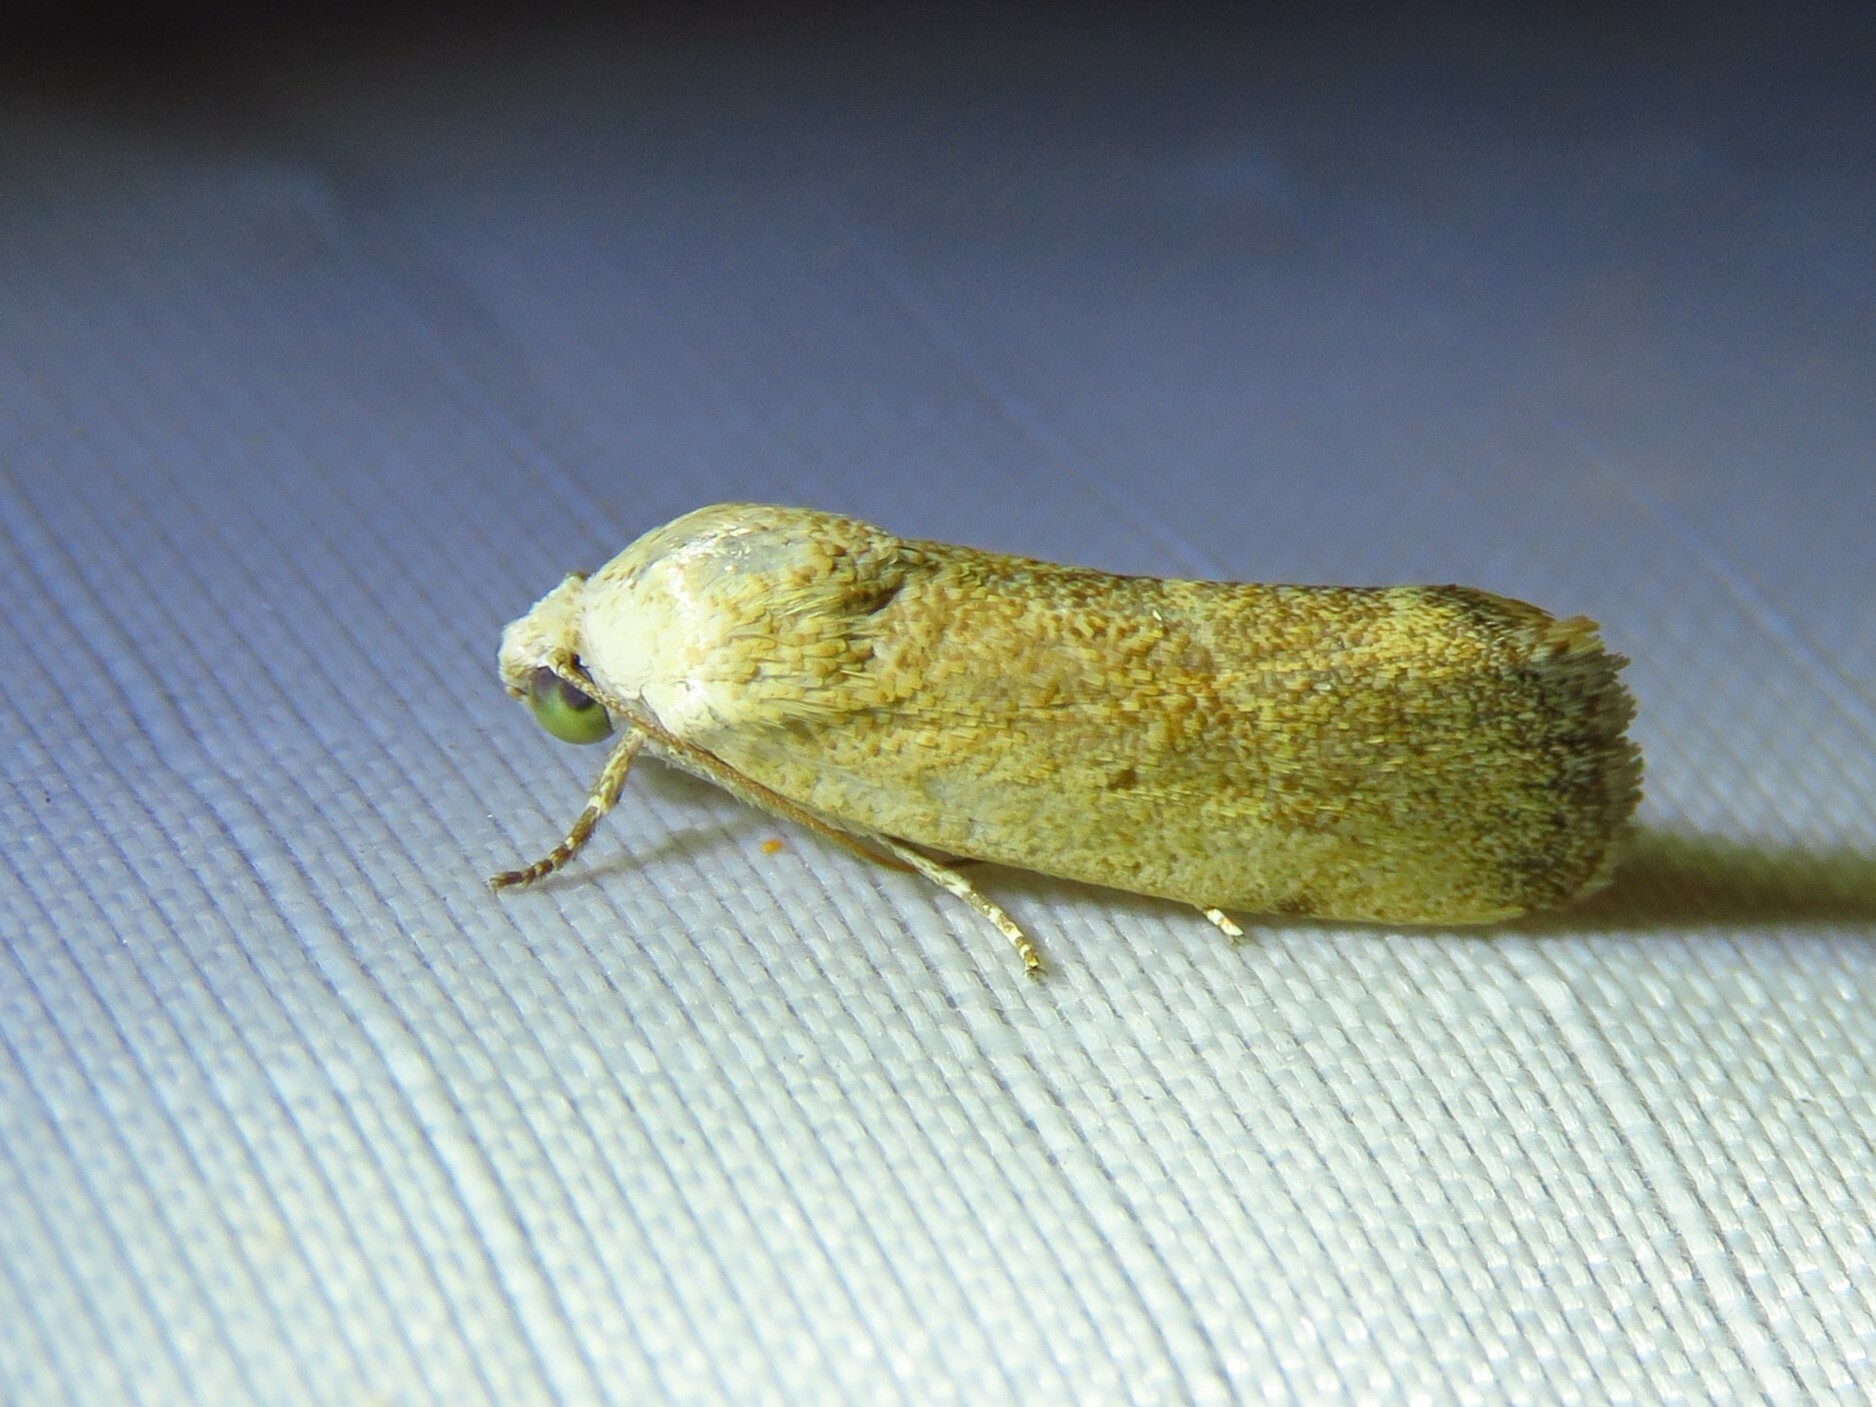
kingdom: Animalia
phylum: Arthropoda
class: Insecta
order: Lepidoptera
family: Noctuidae
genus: Acontia
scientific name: Acontia fasciatella
